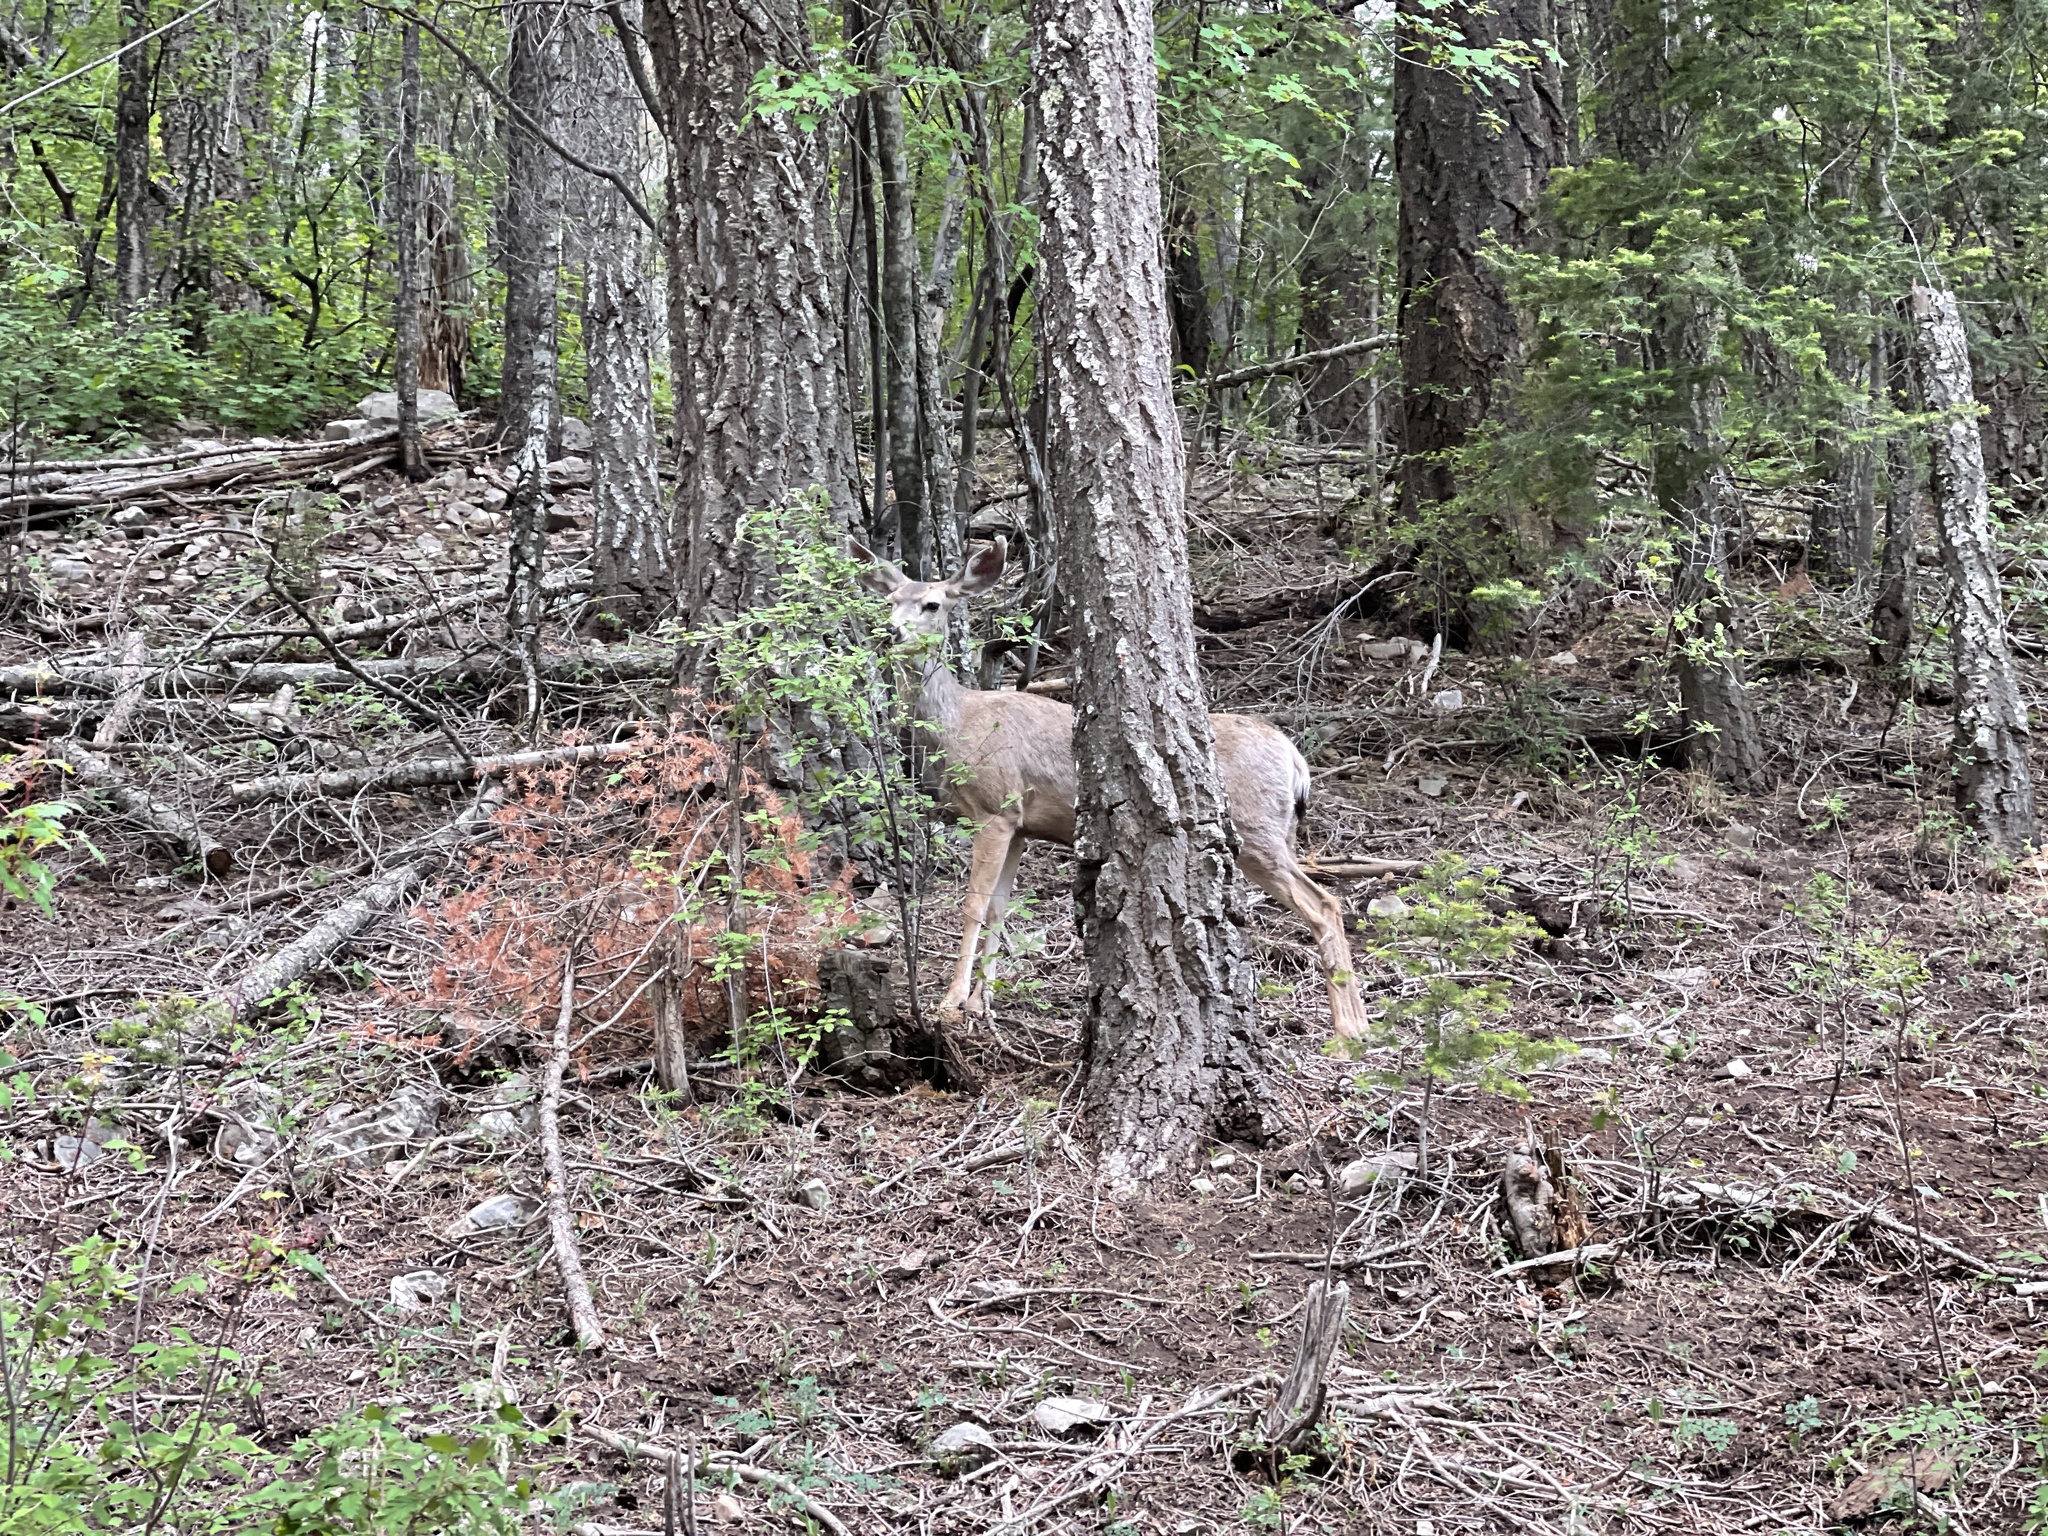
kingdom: Animalia
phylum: Chordata
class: Mammalia
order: Artiodactyla
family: Cervidae
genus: Odocoileus
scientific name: Odocoileus hemionus
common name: Mule deer
